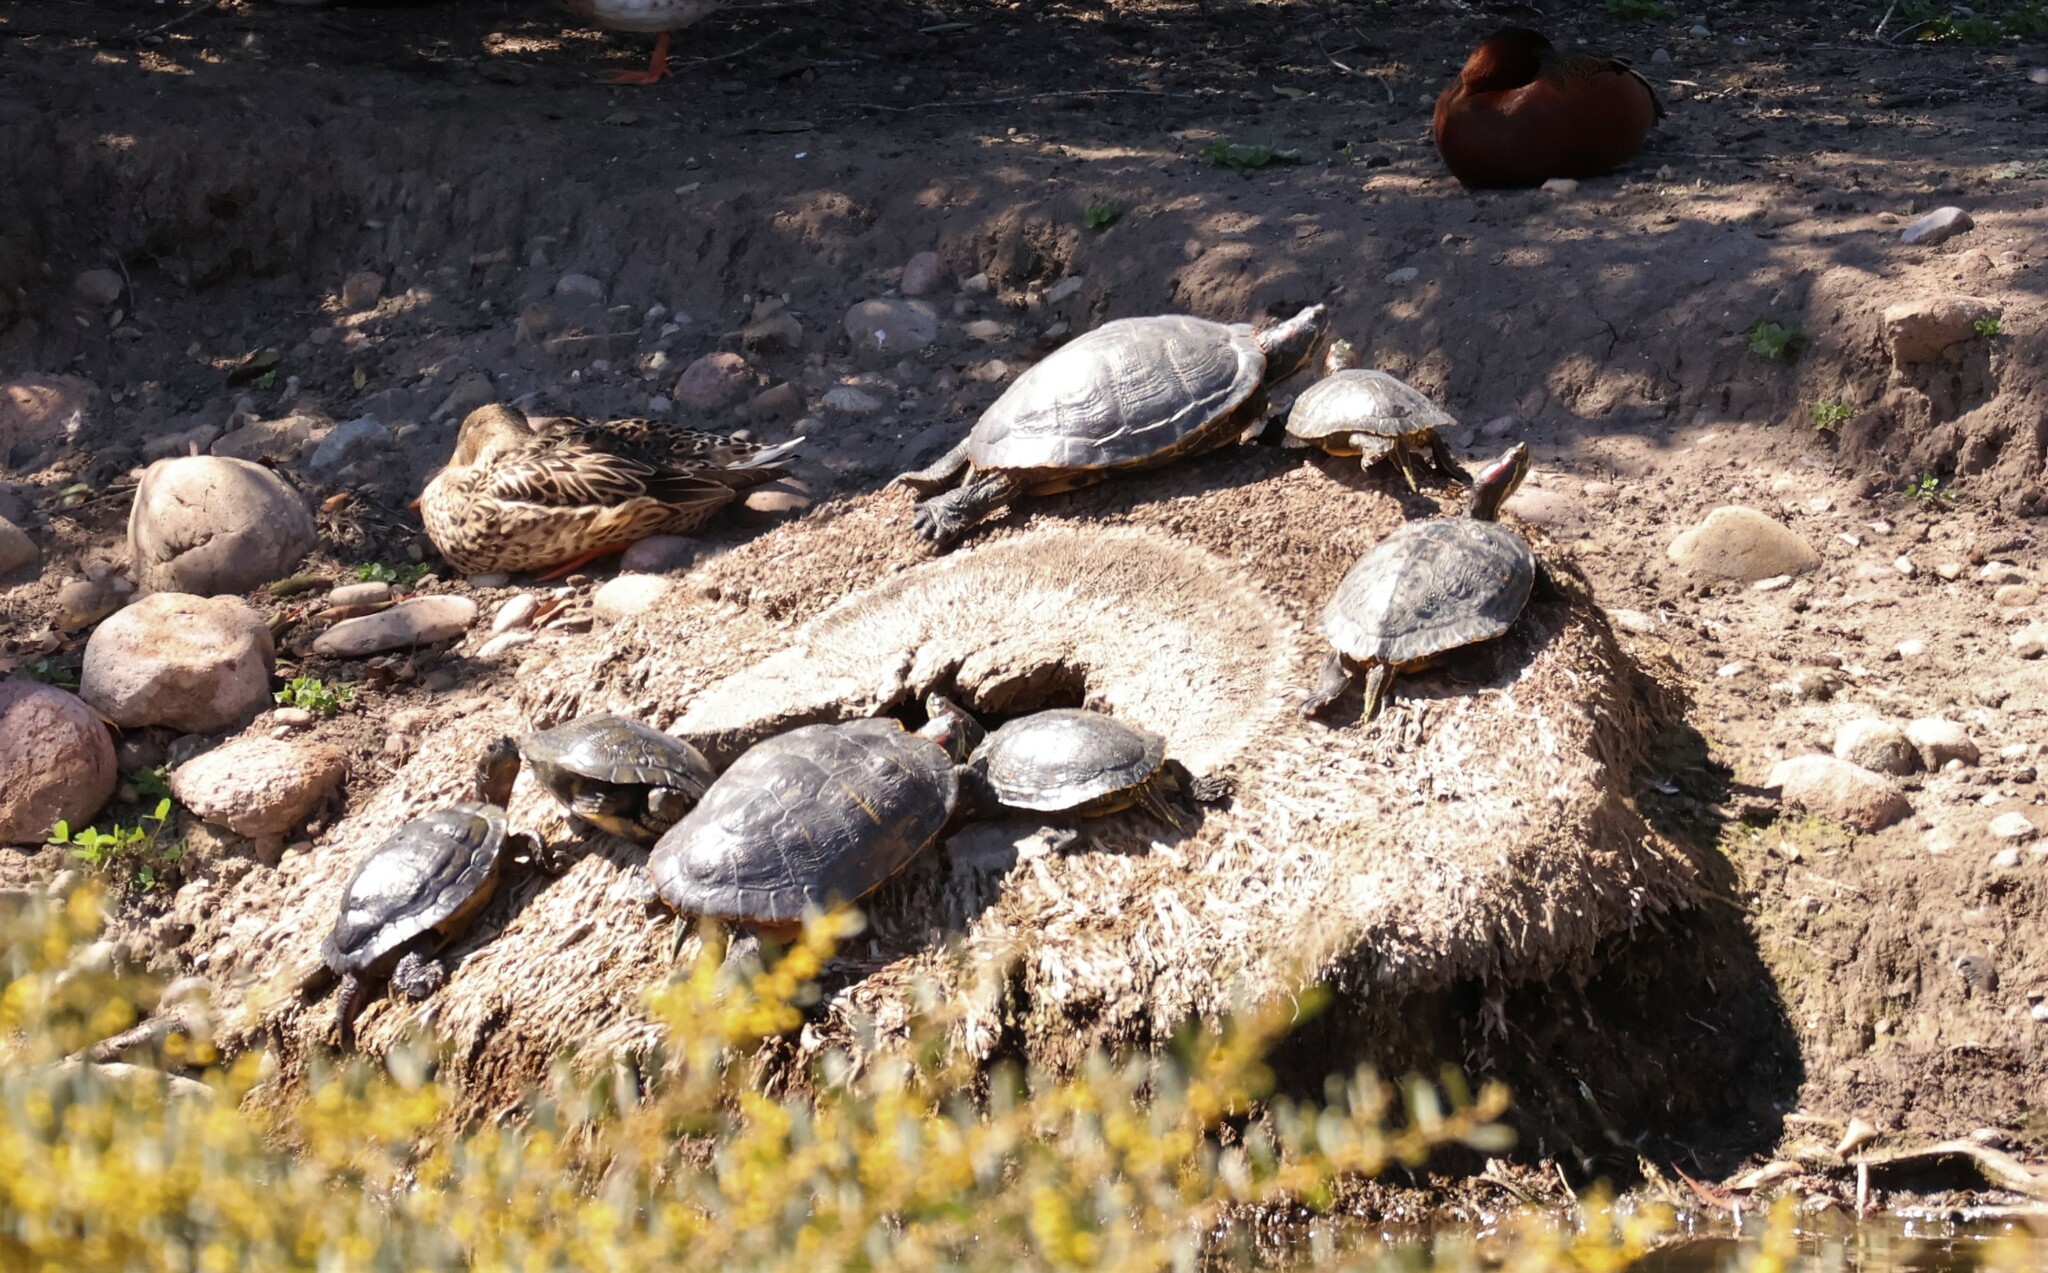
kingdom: Animalia
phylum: Chordata
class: Testudines
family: Emydidae
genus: Trachemys
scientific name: Trachemys scripta
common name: Slider
